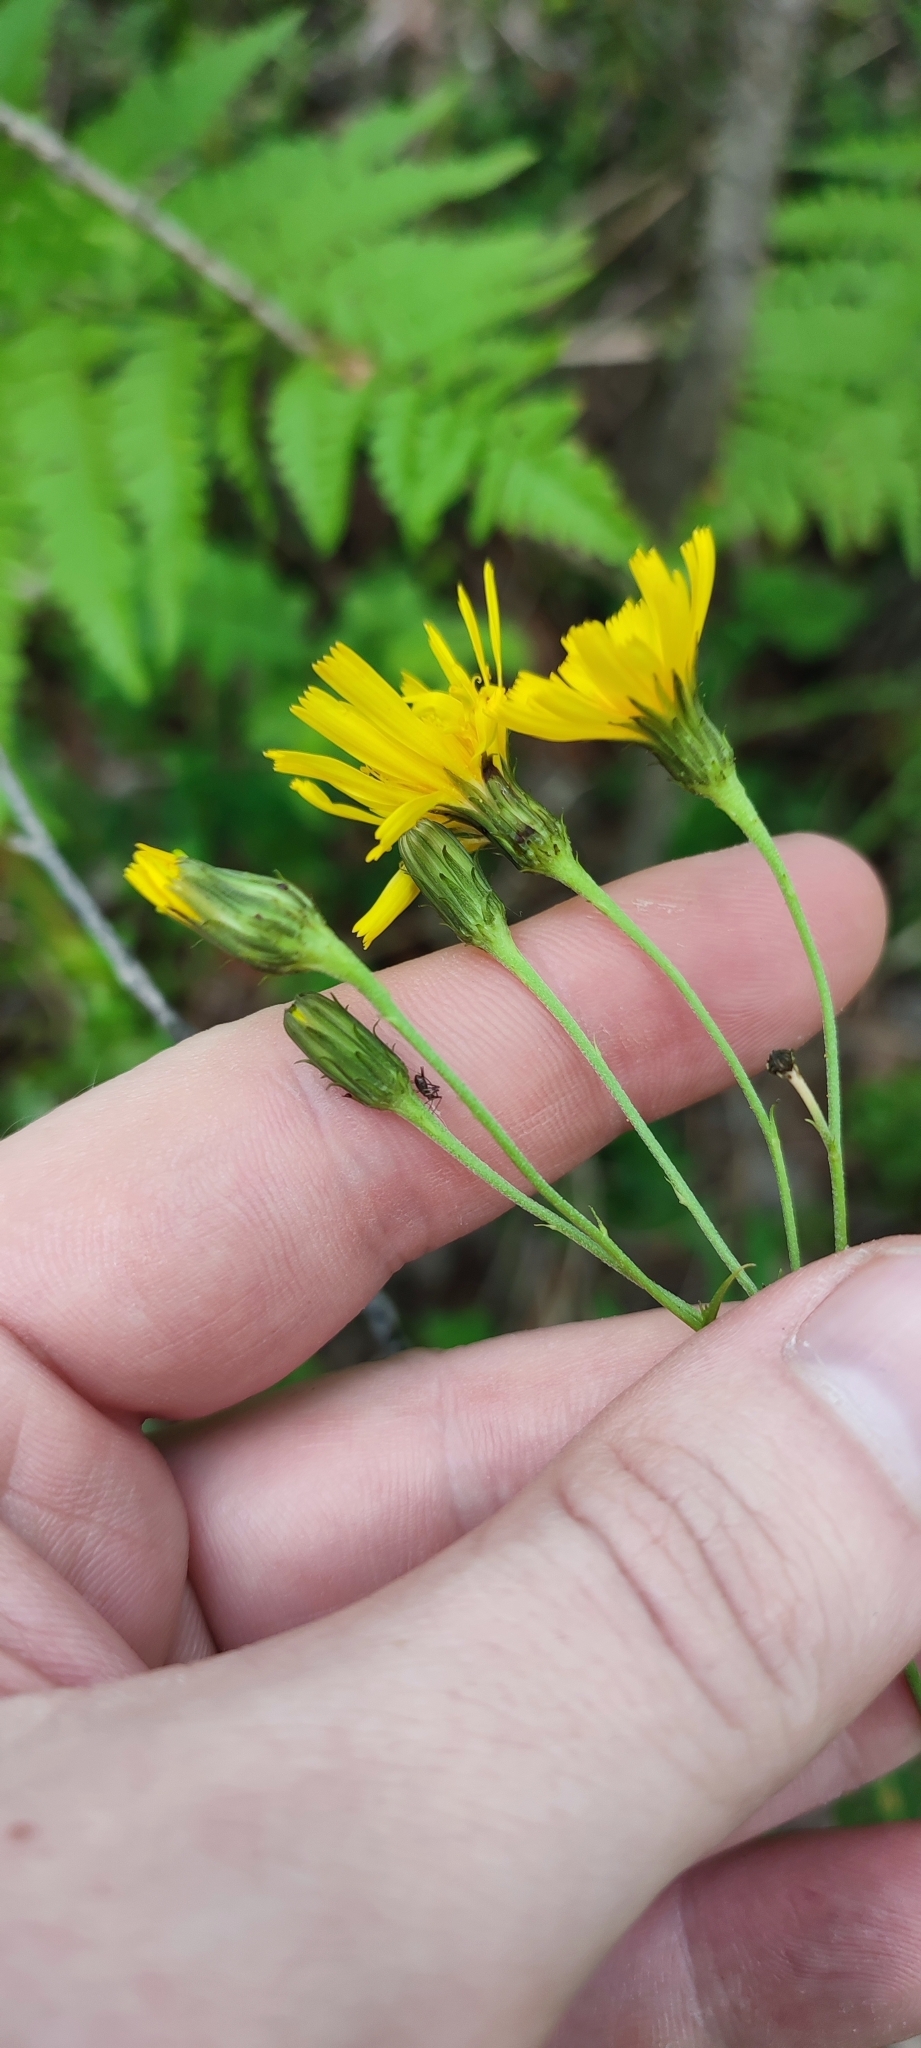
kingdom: Plantae
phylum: Tracheophyta
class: Magnoliopsida
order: Asterales
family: Asteraceae
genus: Hieracium
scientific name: Hieracium umbellatum
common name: Northern hawkweed
